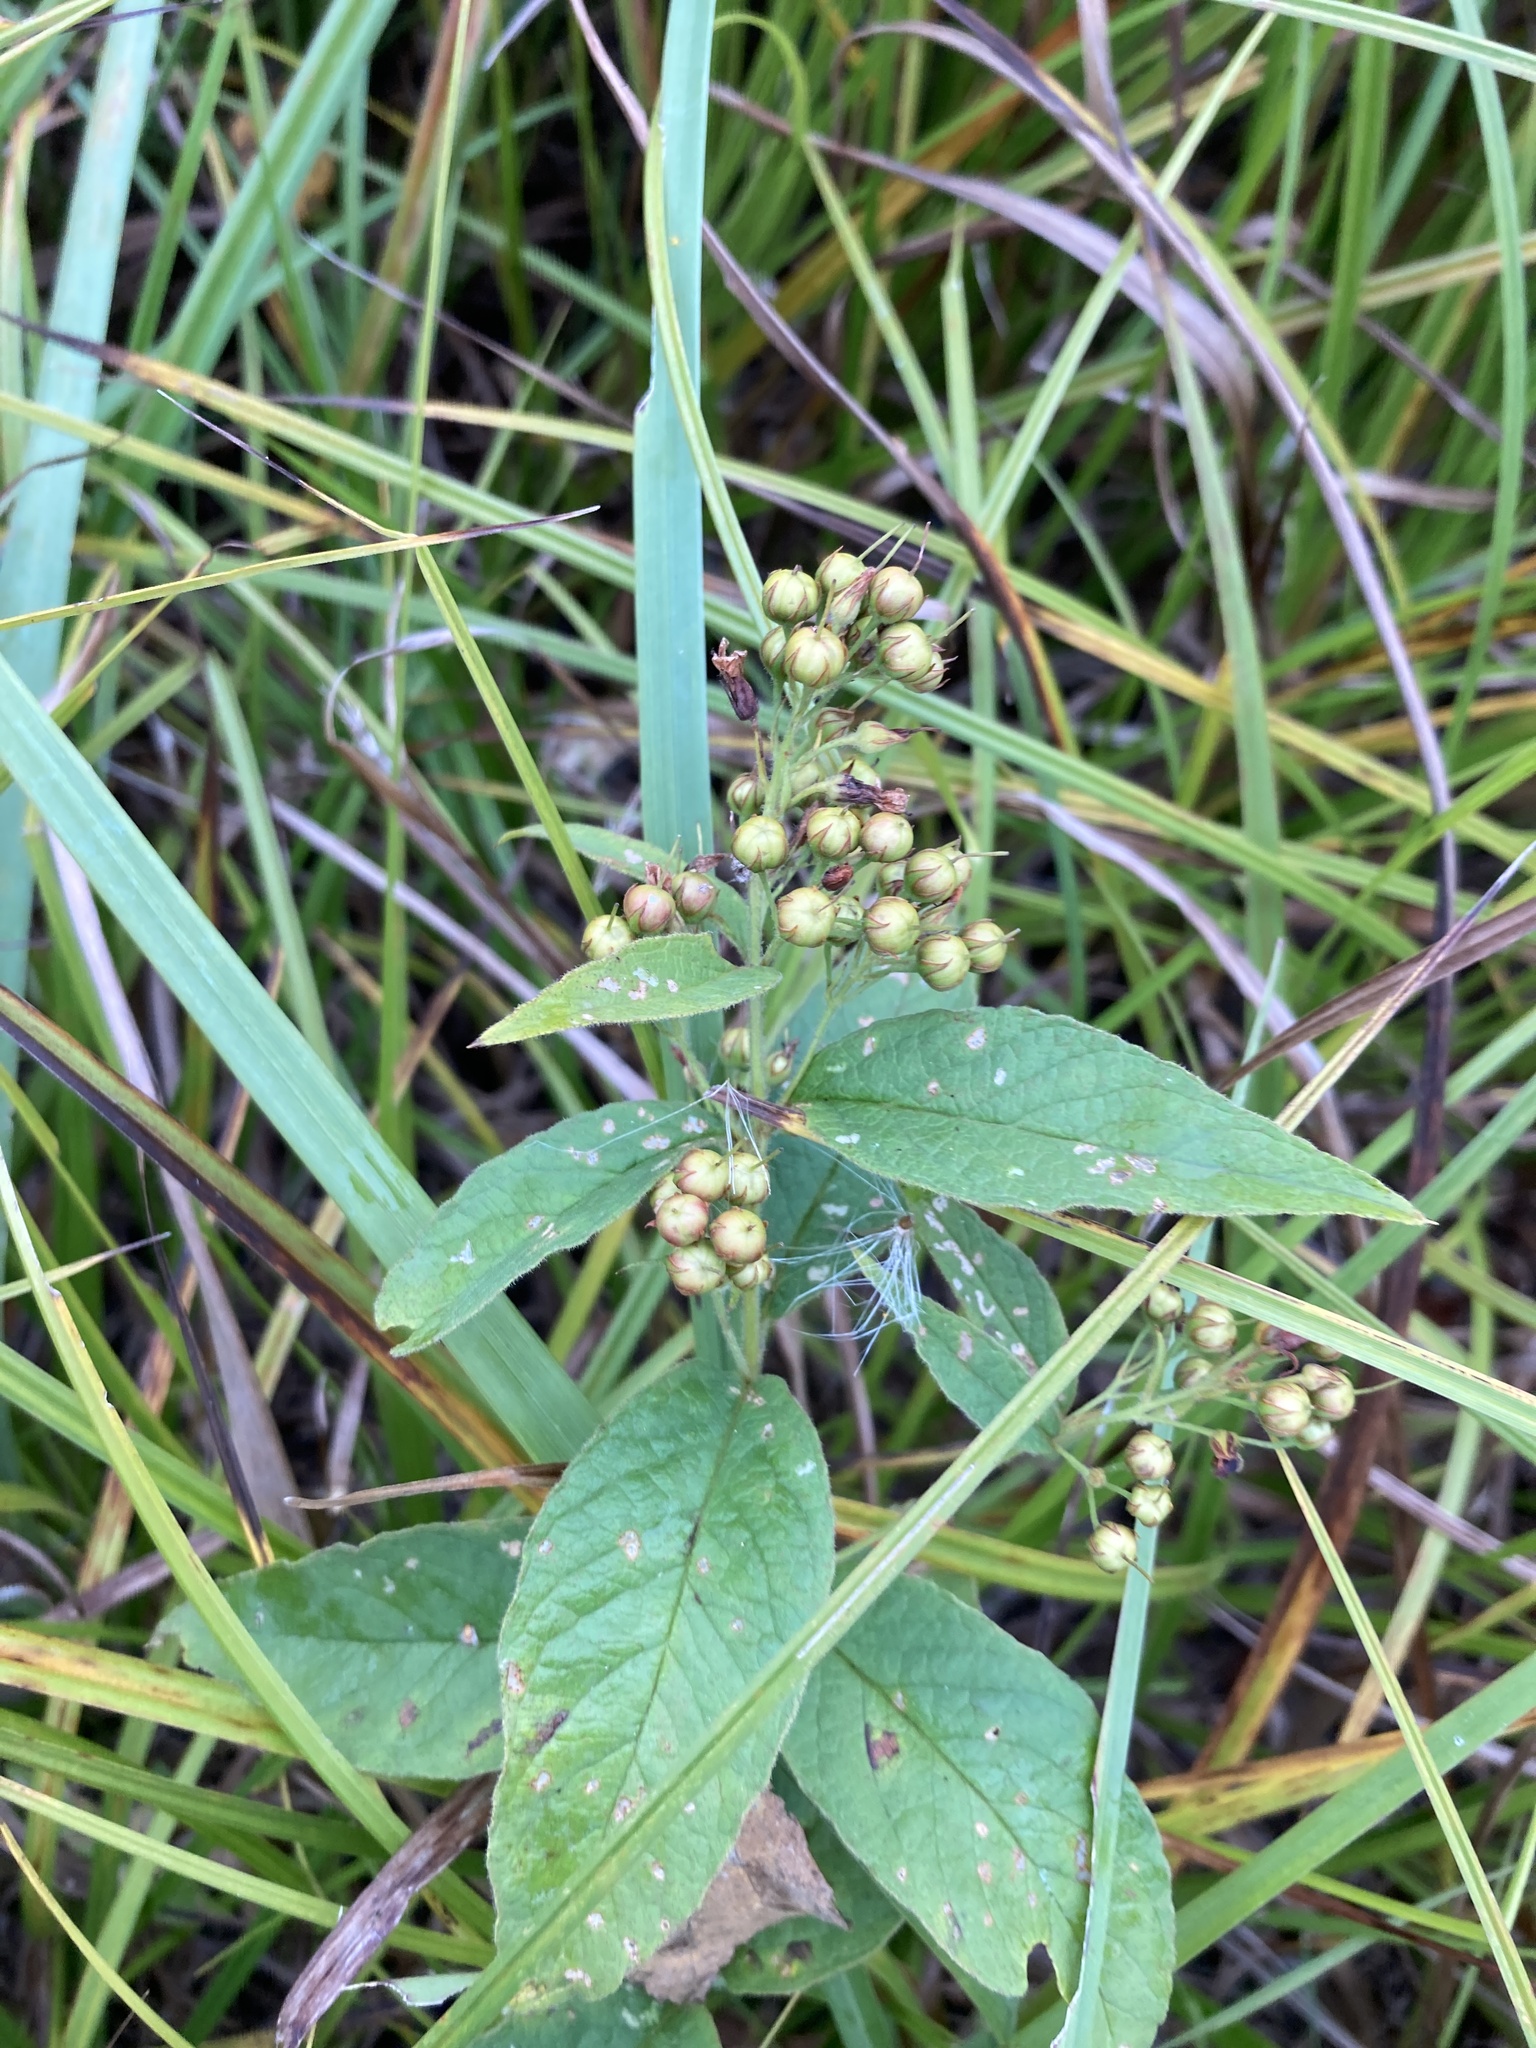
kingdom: Plantae
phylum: Tracheophyta
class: Magnoliopsida
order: Ericales
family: Primulaceae
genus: Lysimachia
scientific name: Lysimachia vulgaris
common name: Yellow loosestrife
